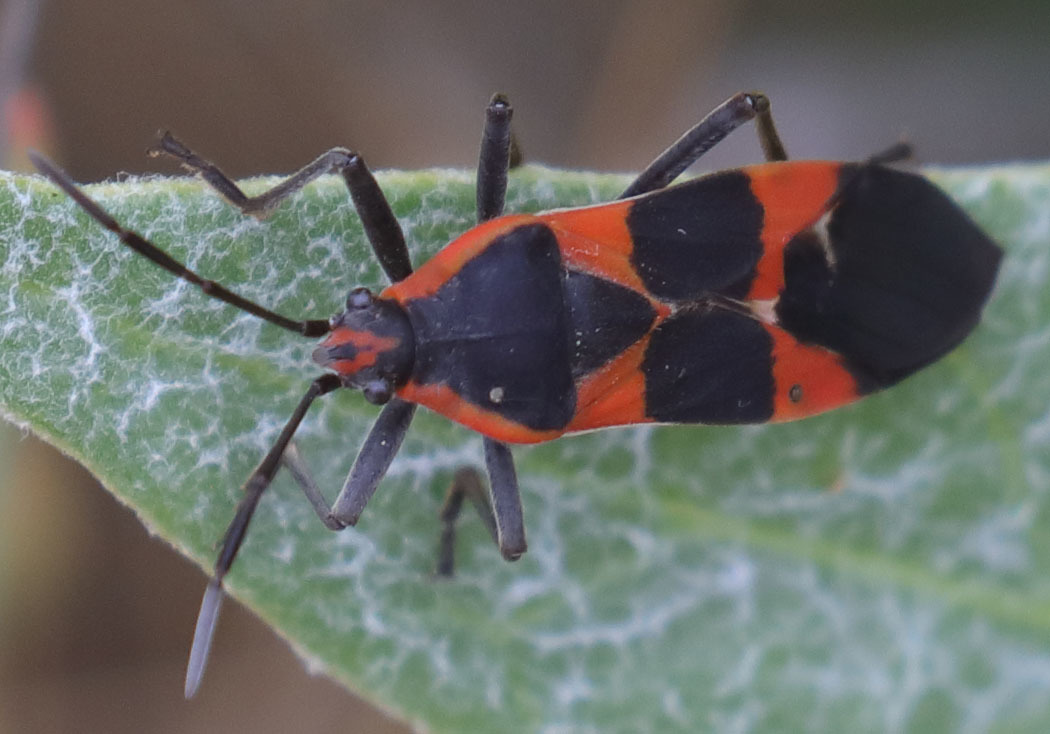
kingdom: Animalia
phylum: Arthropoda
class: Insecta
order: Hemiptera
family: Lygaeidae
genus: Oncopeltus
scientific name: Oncopeltus fasciatus
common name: Large milkweed bug
